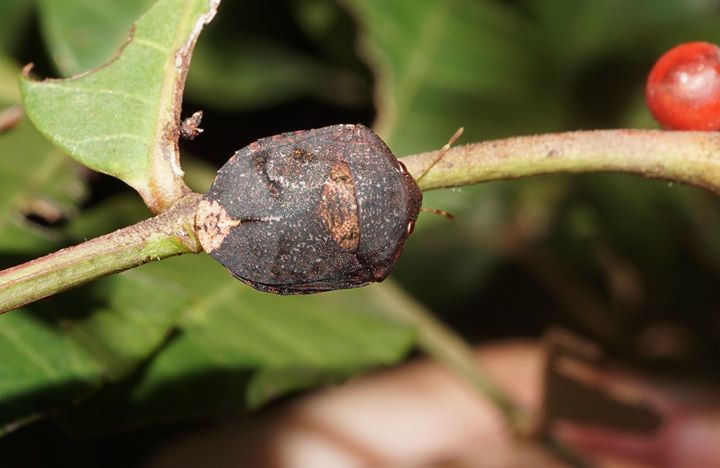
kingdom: Animalia
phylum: Arthropoda
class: Insecta
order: Hemiptera
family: Scutelleridae
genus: Symphylus
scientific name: Symphylus caribbeanus
